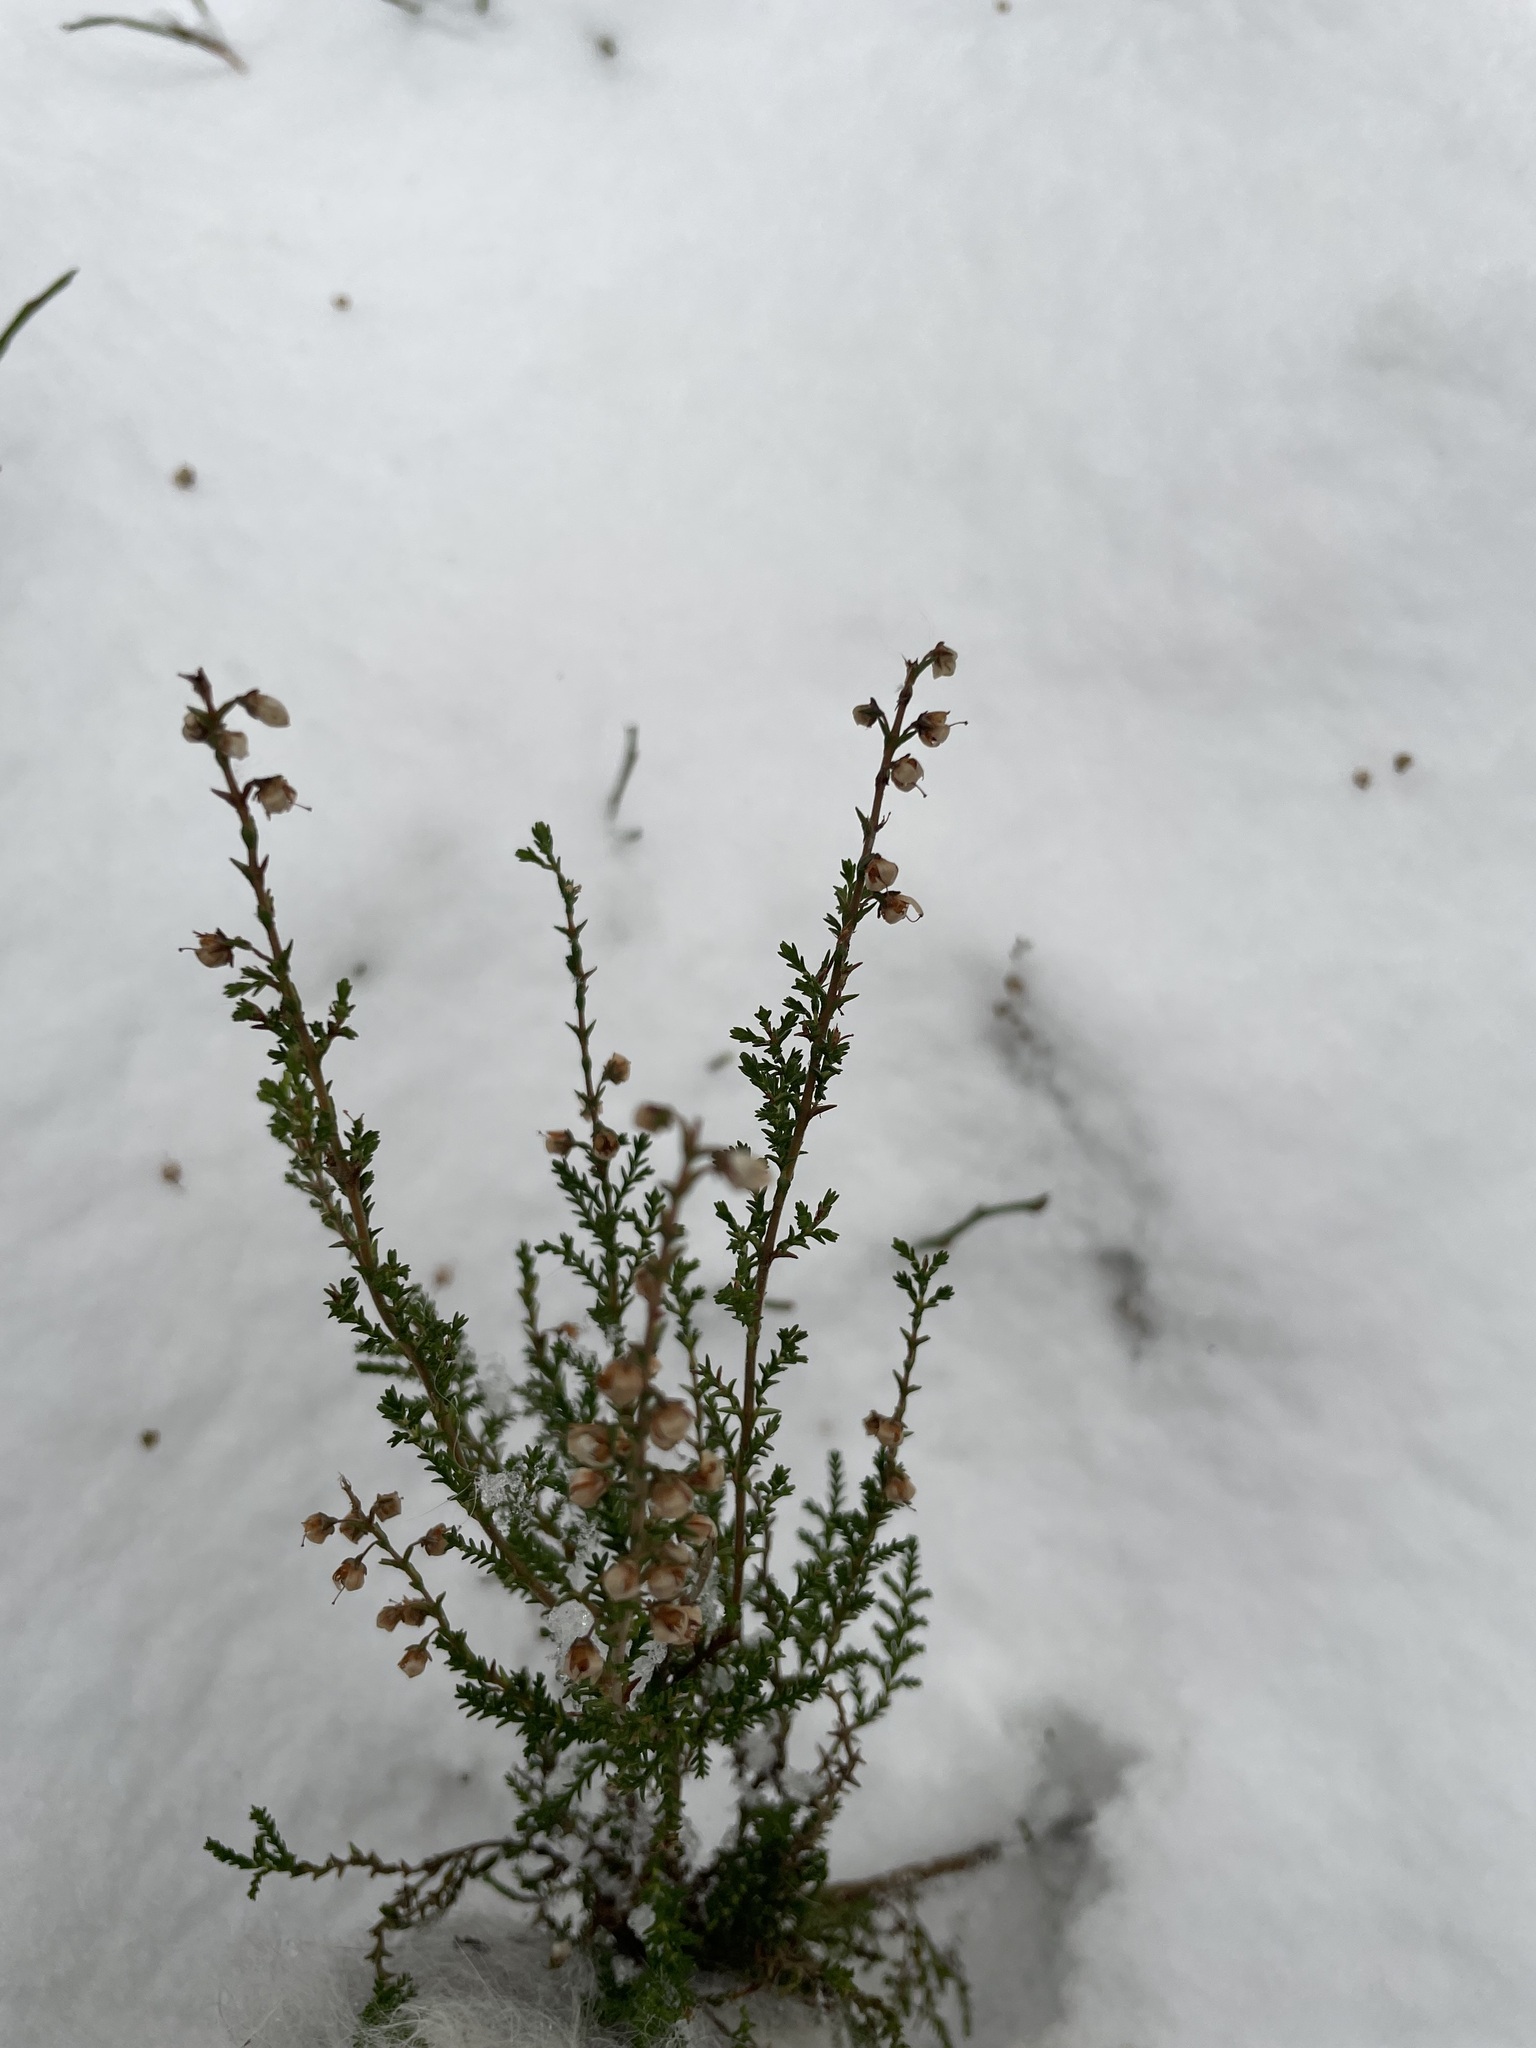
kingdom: Plantae
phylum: Tracheophyta
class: Magnoliopsida
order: Ericales
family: Ericaceae
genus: Calluna
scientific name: Calluna vulgaris
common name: Heather
